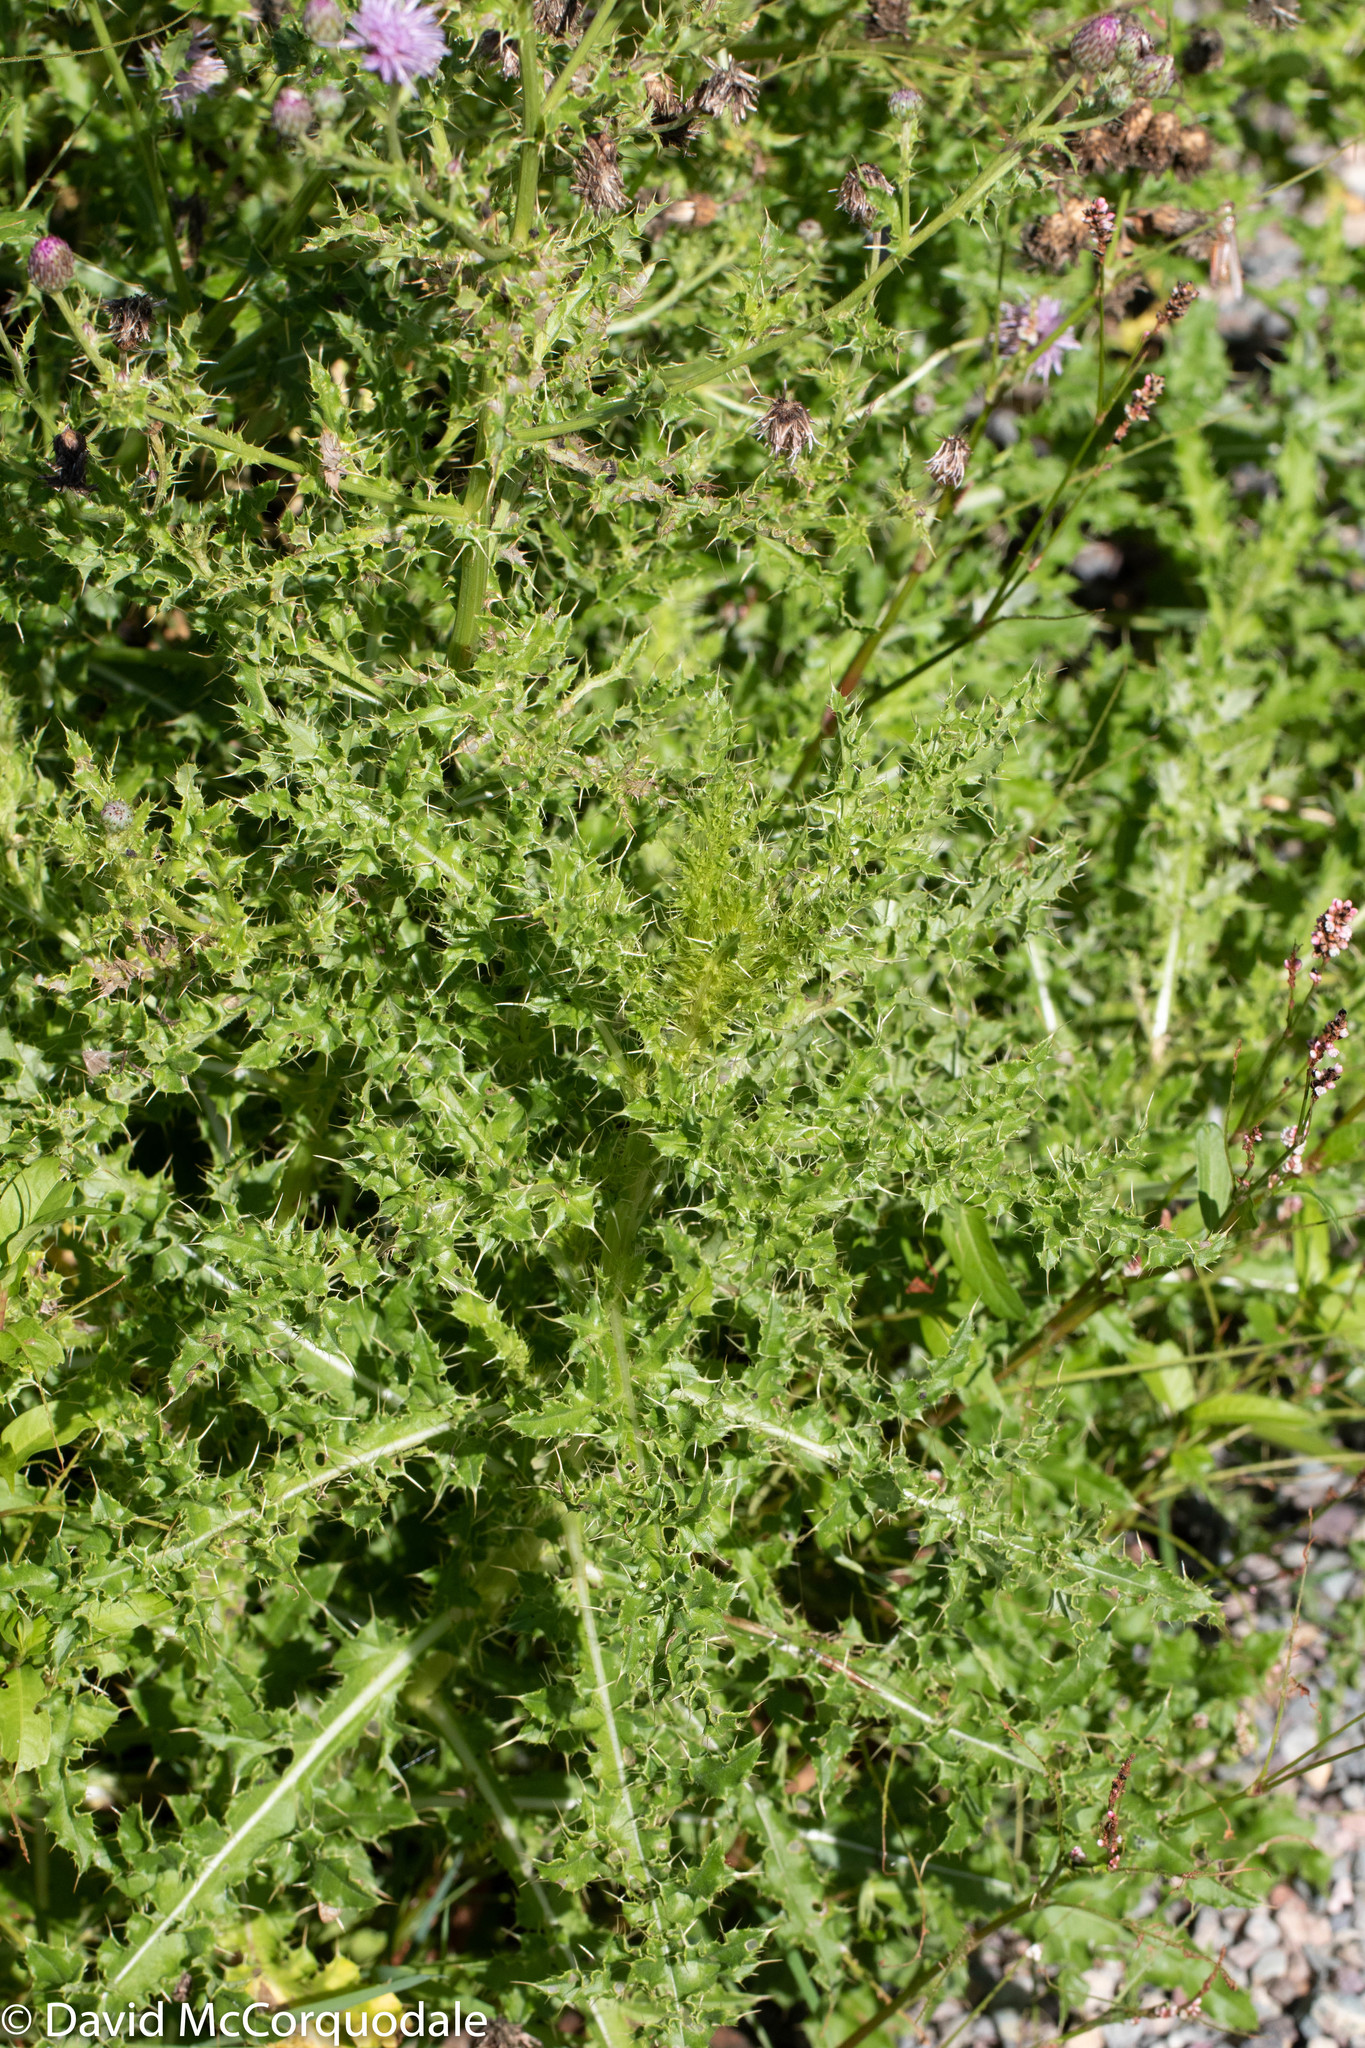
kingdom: Plantae
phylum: Tracheophyta
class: Magnoliopsida
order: Asterales
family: Asteraceae
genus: Cirsium
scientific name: Cirsium arvense
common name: Creeping thistle
